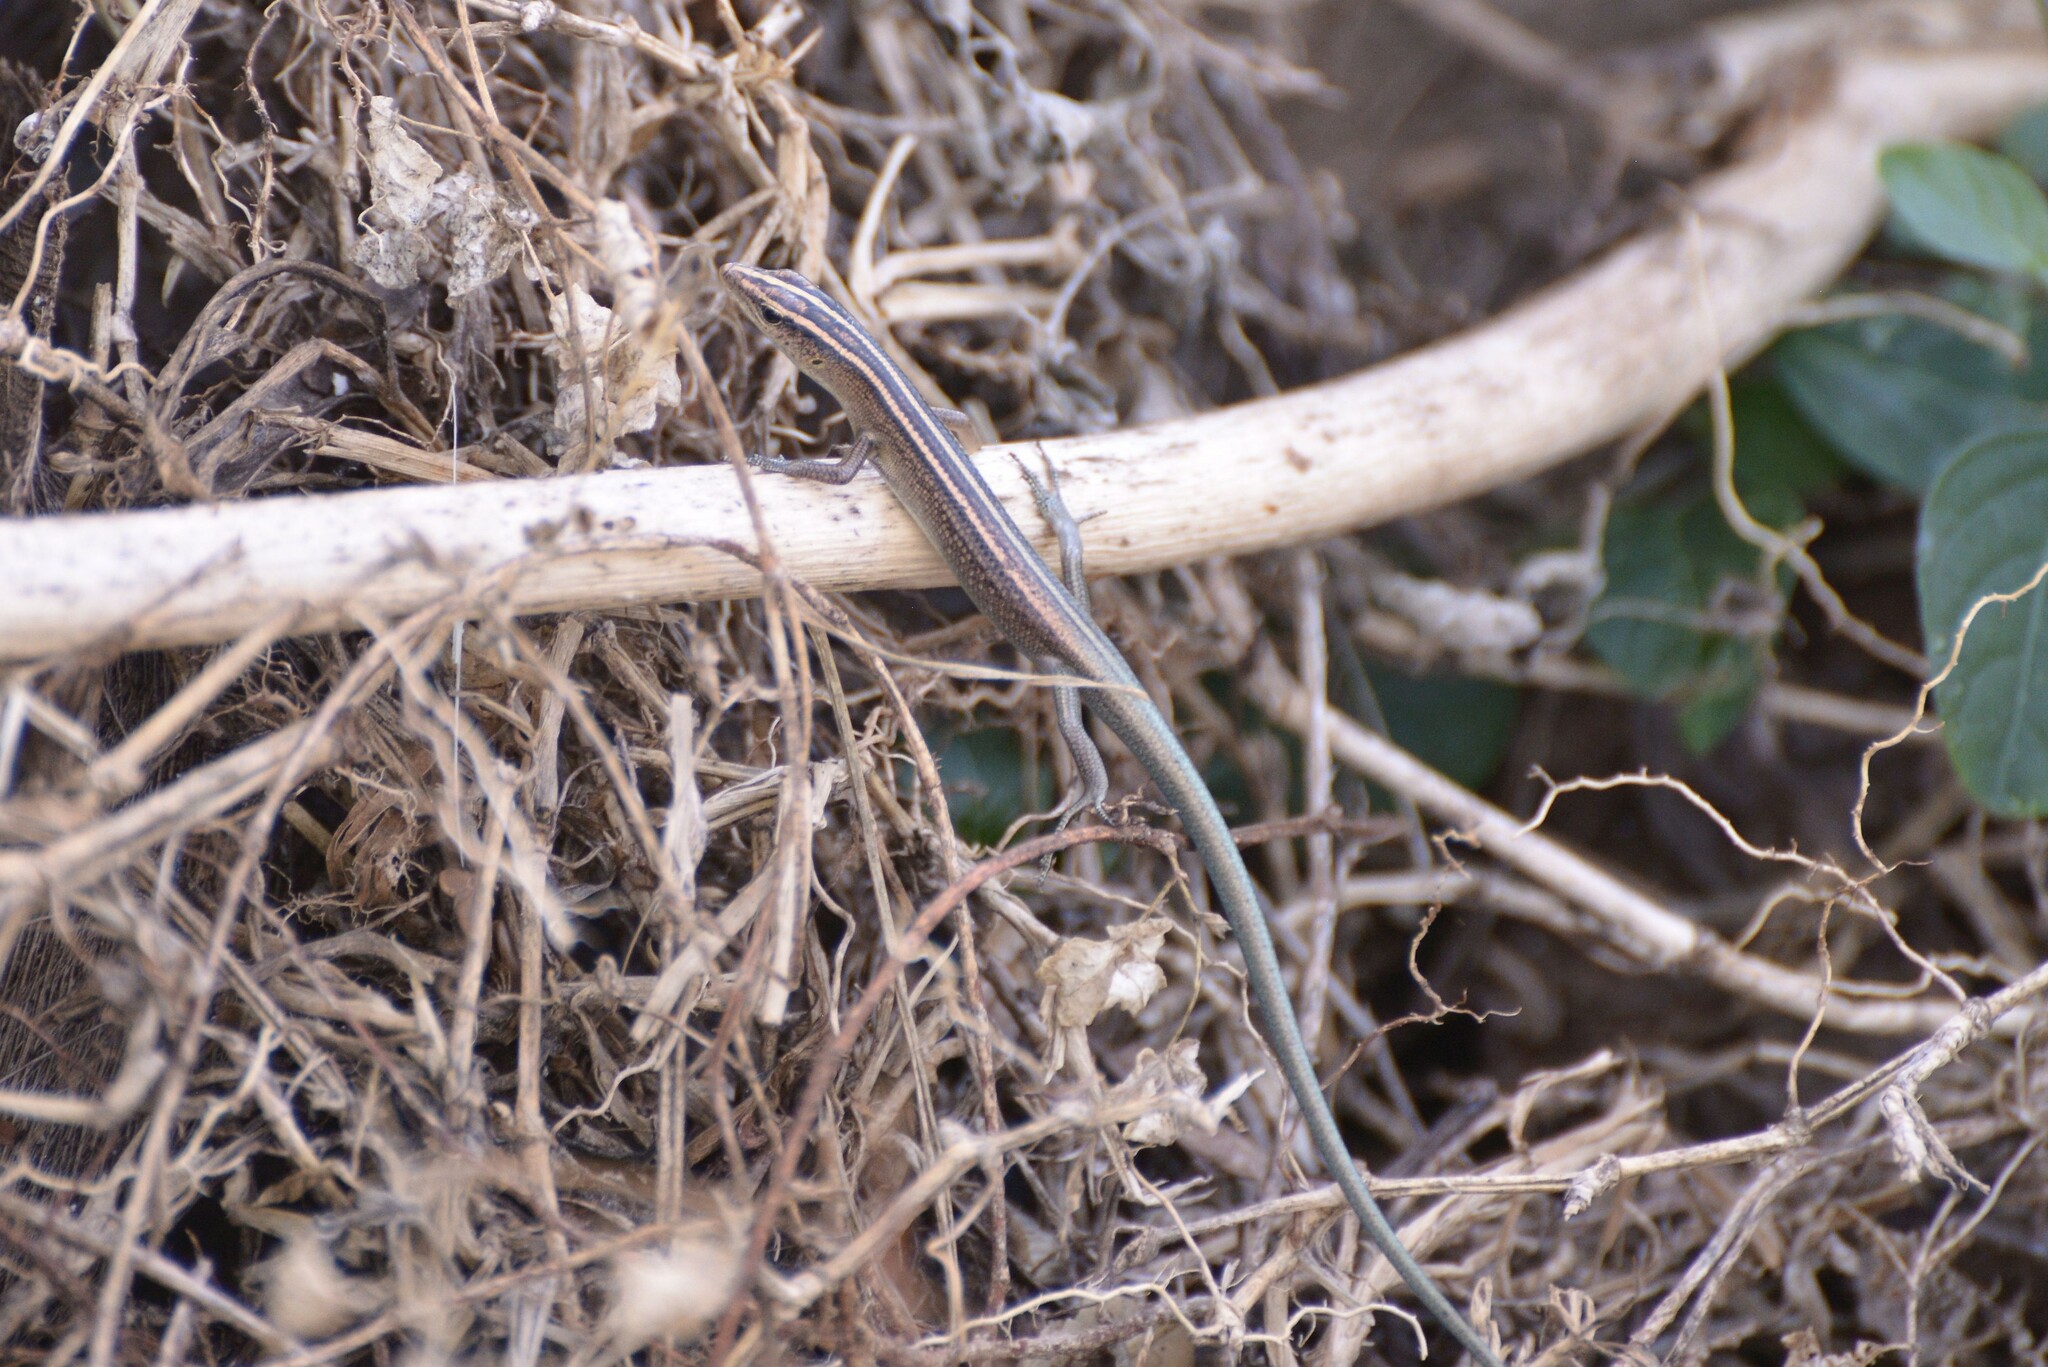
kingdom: Animalia
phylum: Chordata
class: Squamata
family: Scincidae
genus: Emoia
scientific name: Emoia cyanura
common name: Copper-tailed skink
